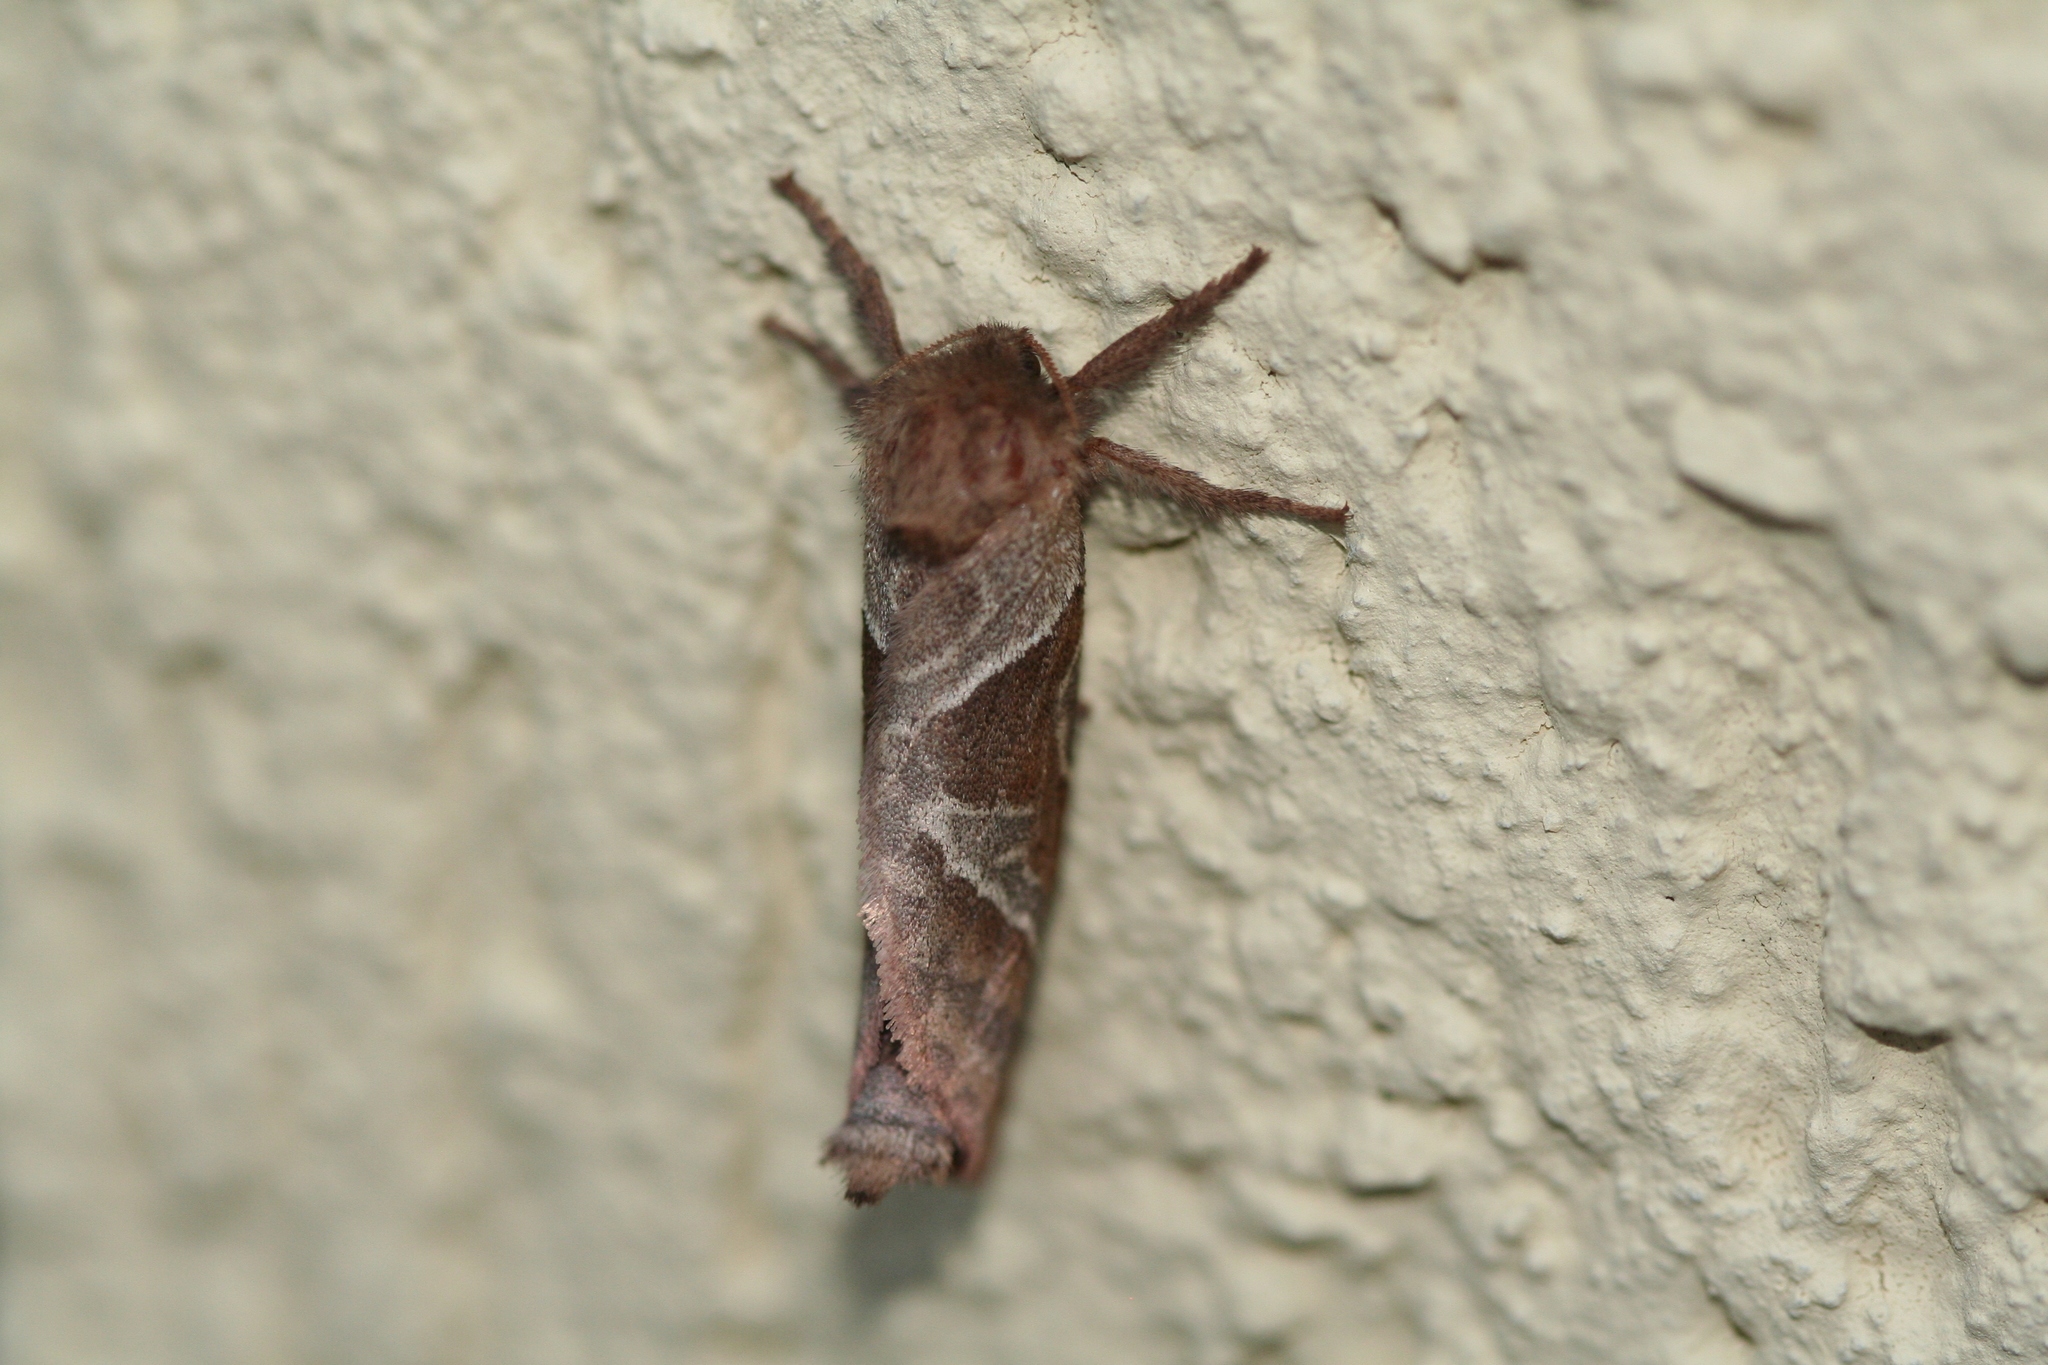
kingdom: Animalia
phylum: Arthropoda
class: Insecta
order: Lepidoptera
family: Hepialidae
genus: Triodia
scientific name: Triodia sylvina
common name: Orange swift
